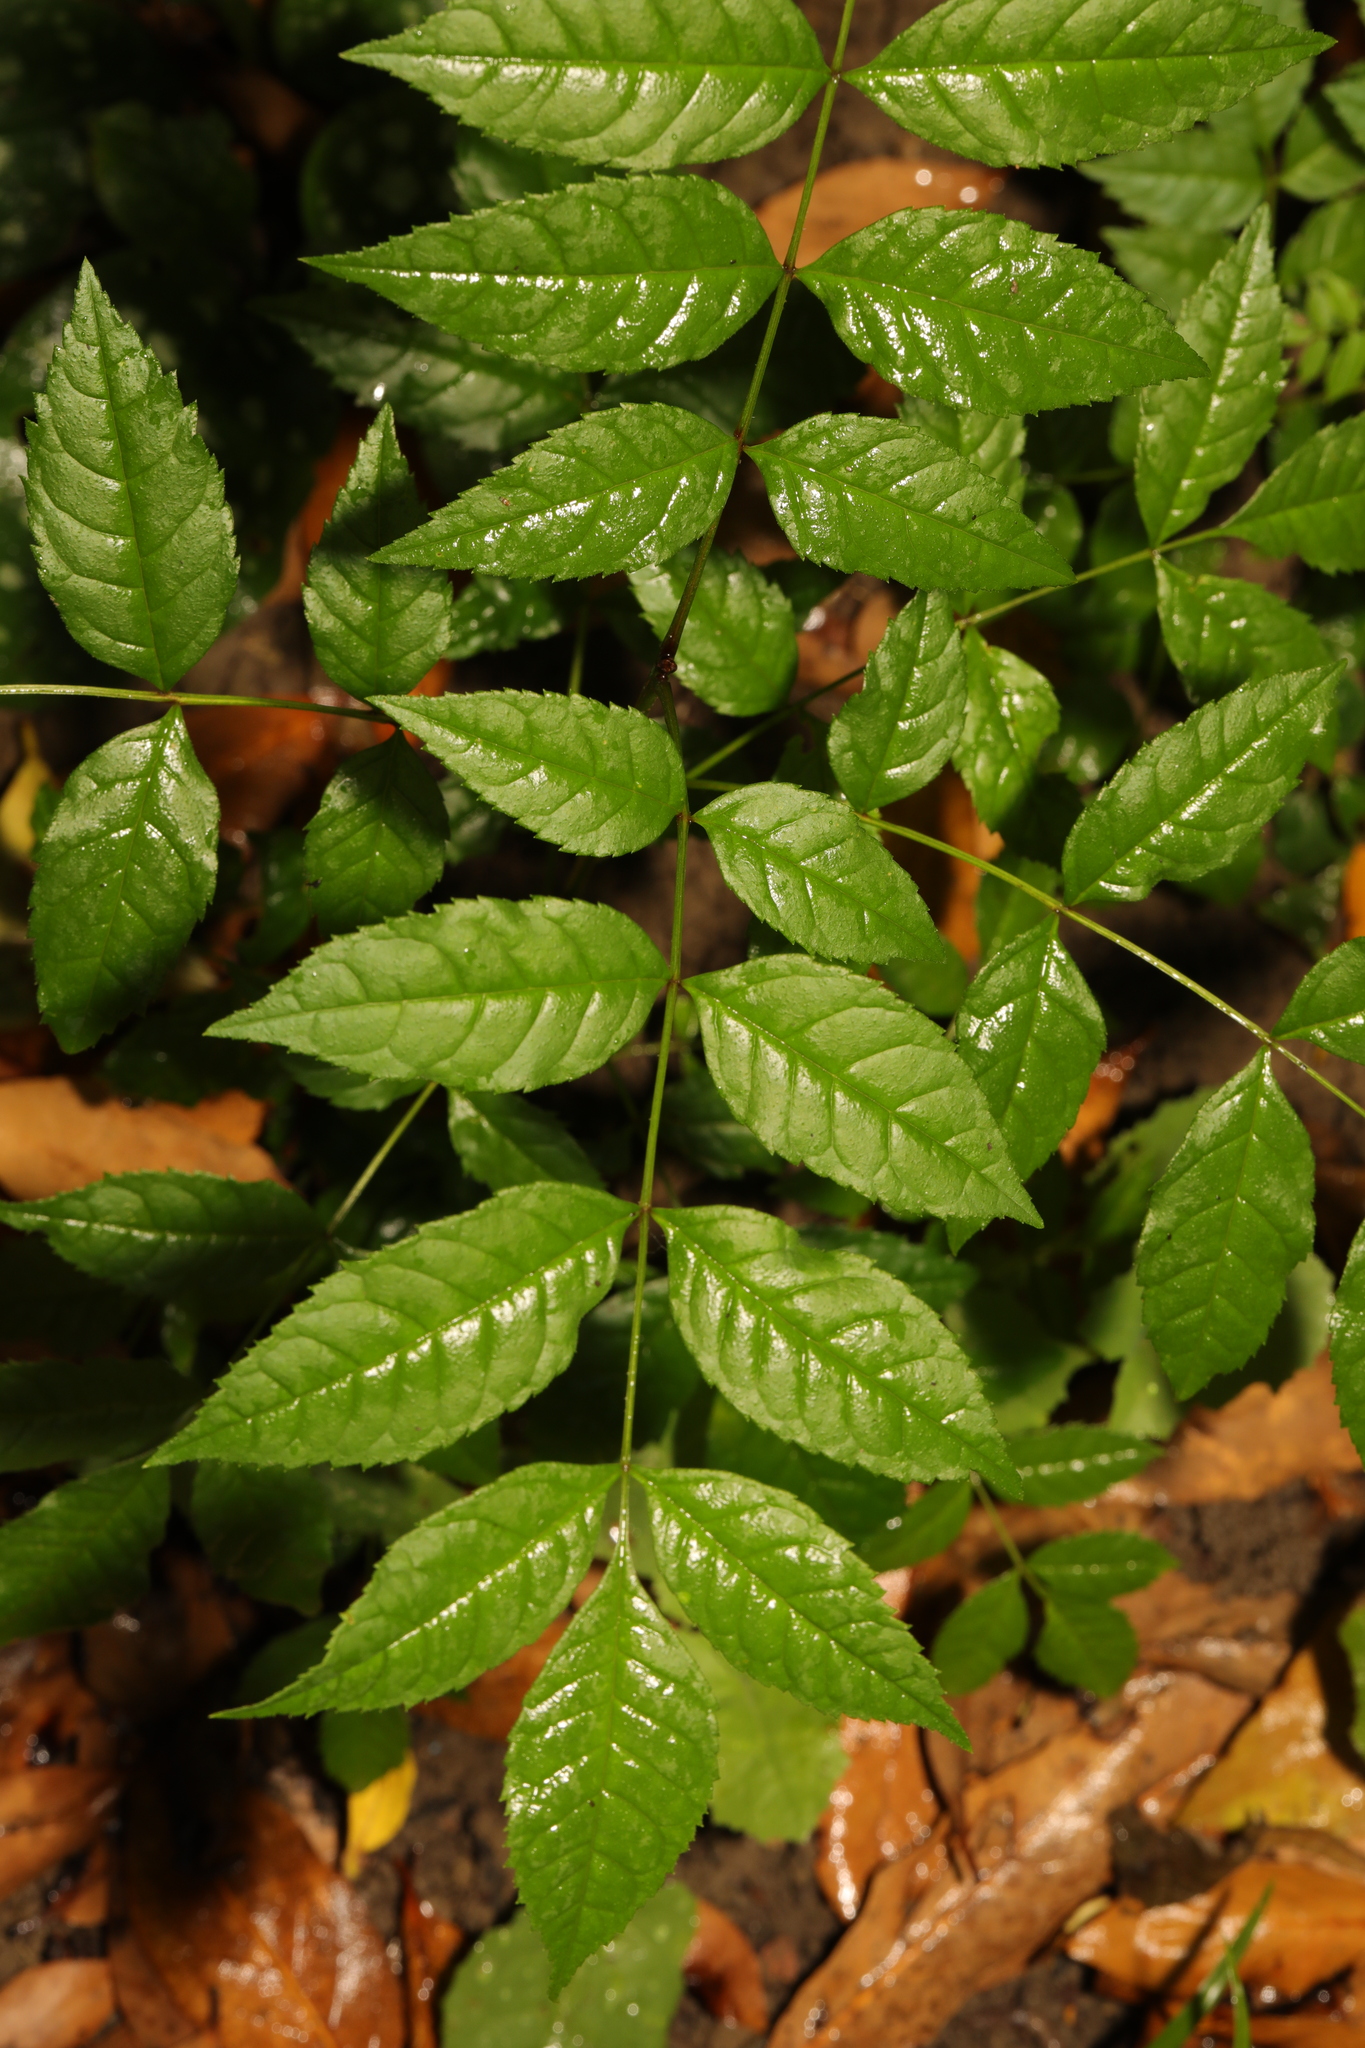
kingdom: Plantae
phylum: Tracheophyta
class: Magnoliopsida
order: Lamiales
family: Oleaceae
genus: Fraxinus
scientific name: Fraxinus excelsior
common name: European ash
